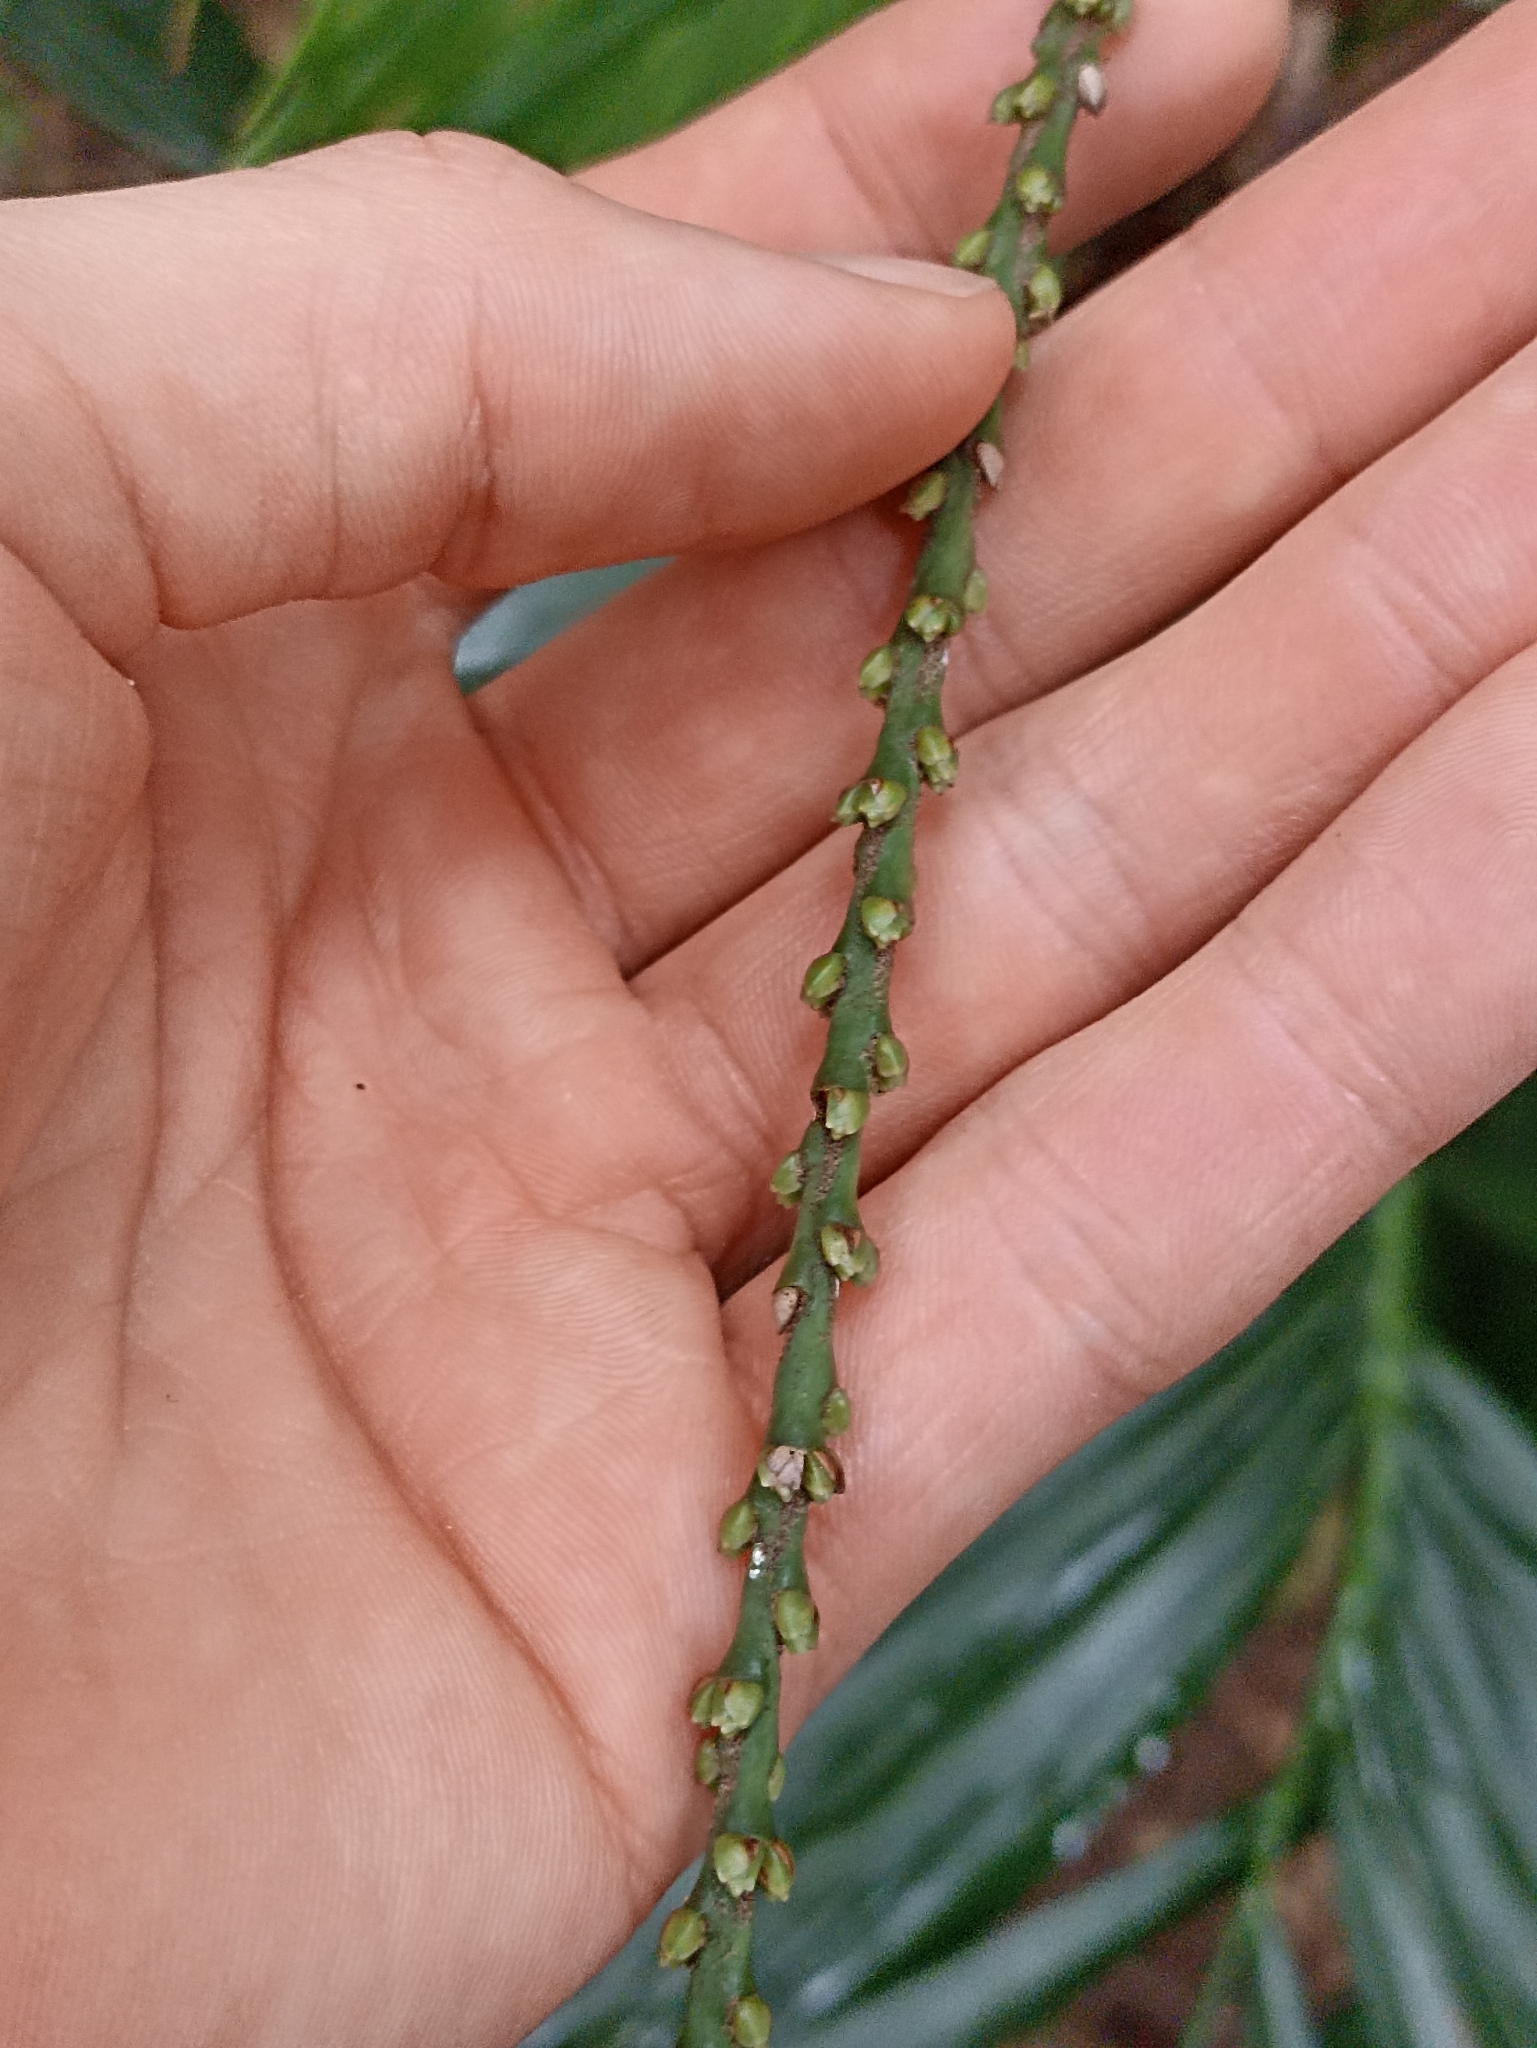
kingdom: Plantae
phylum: Tracheophyta
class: Liliopsida
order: Arecales
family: Arecaceae
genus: Linospadix
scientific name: Linospadix monostachyus
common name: Walking-stick palm
